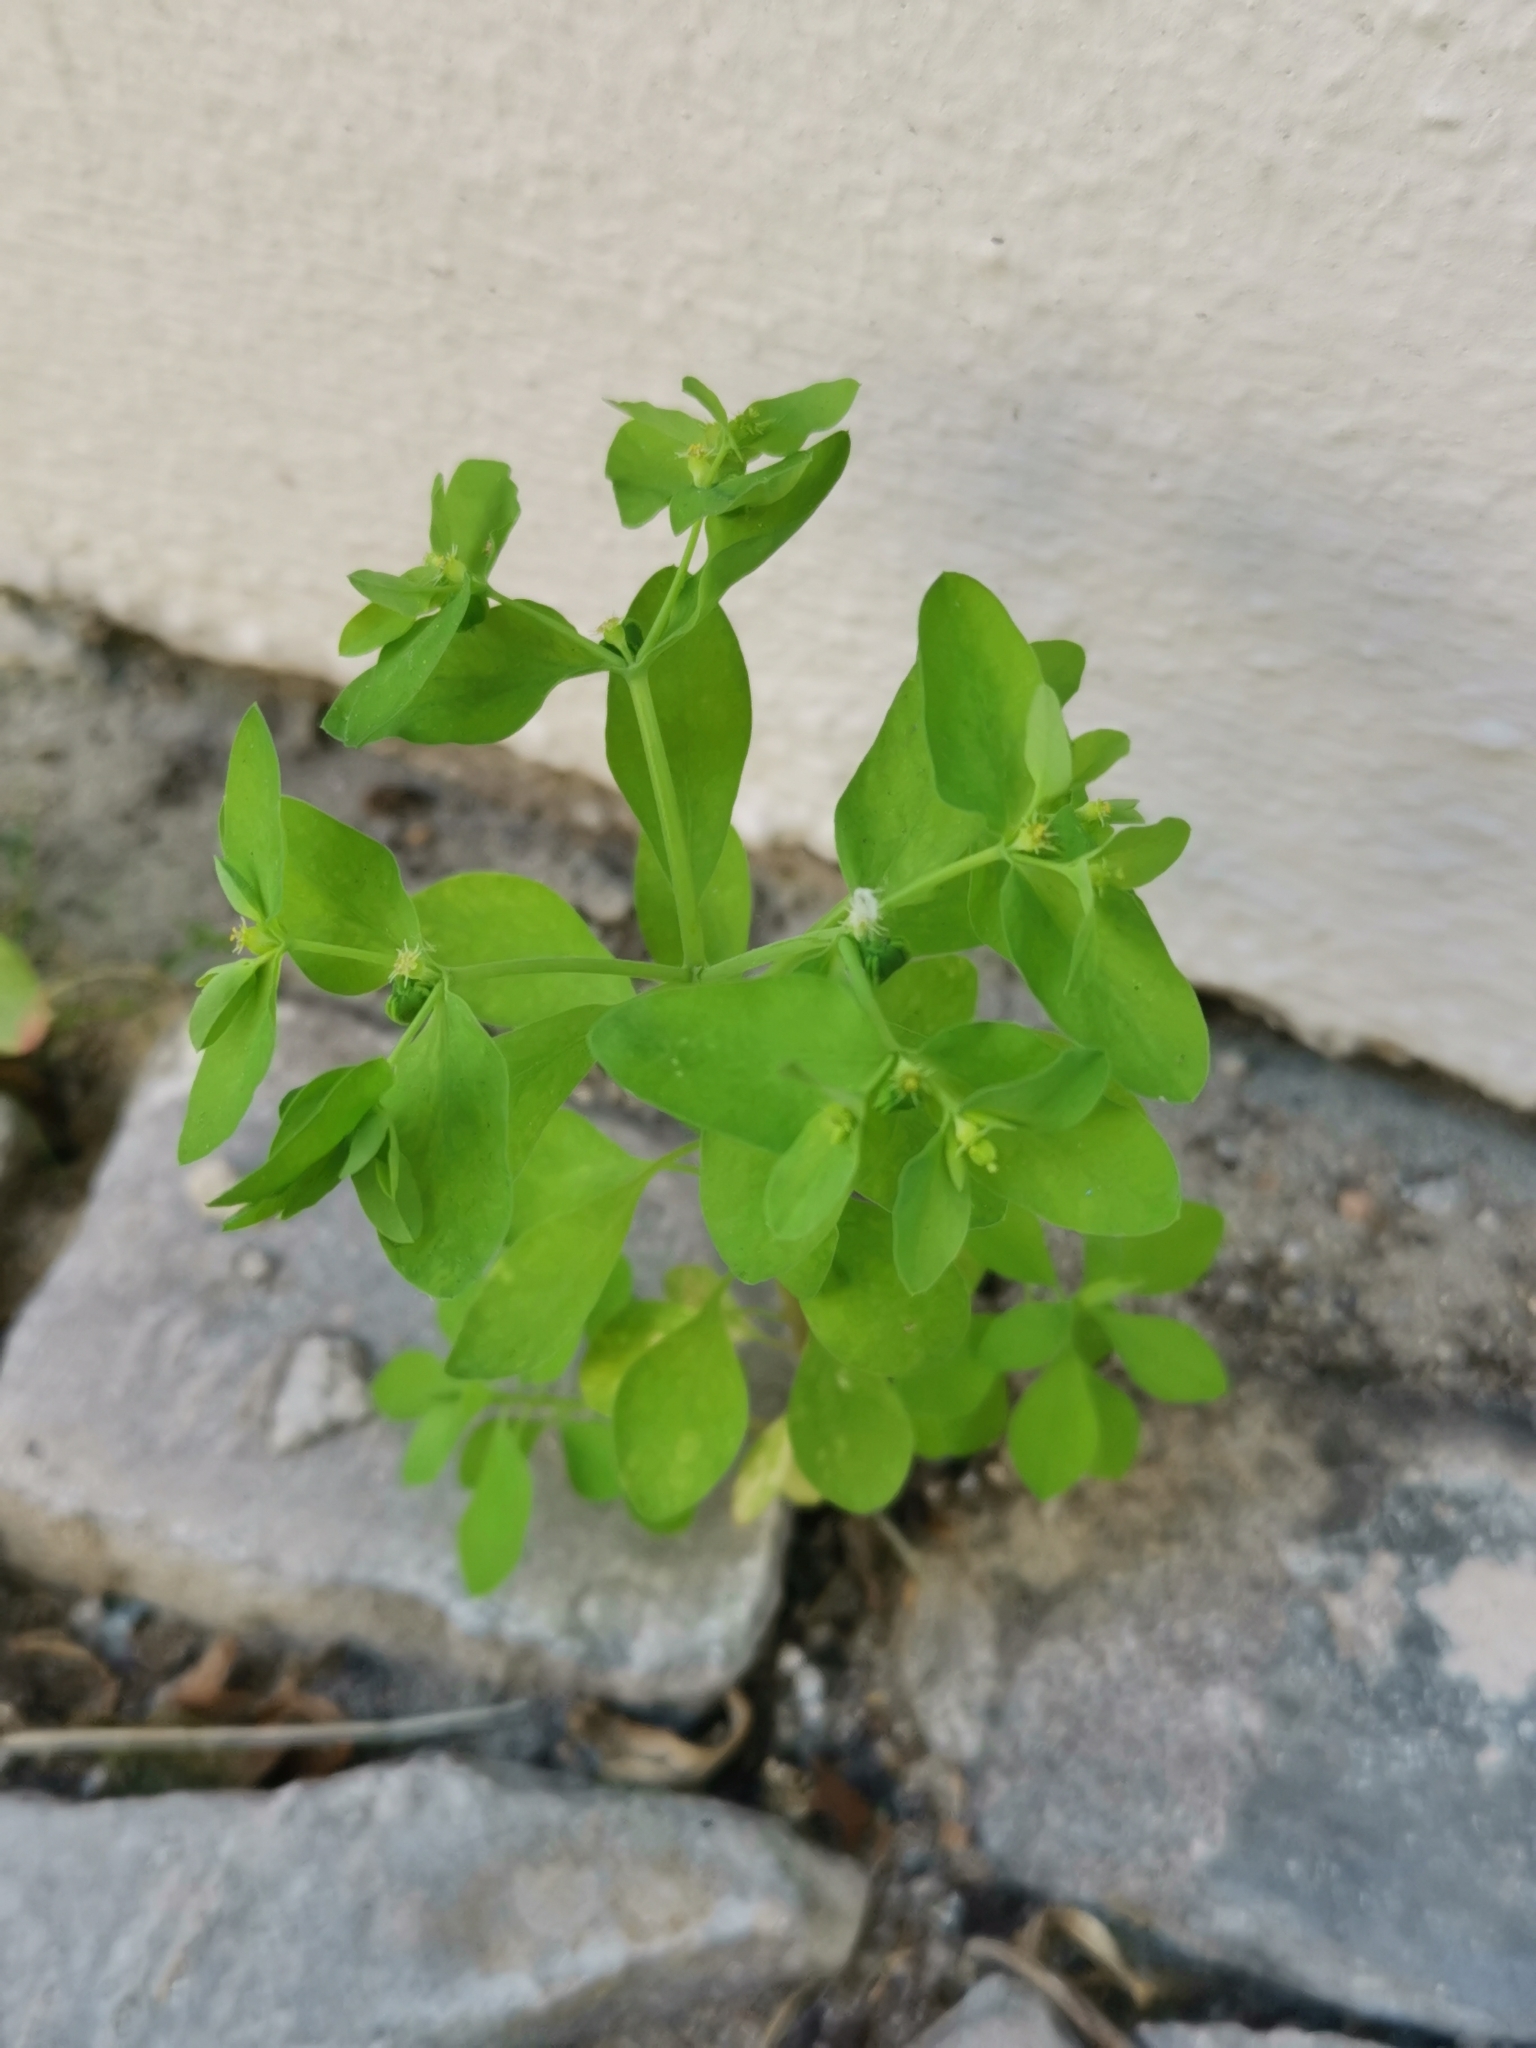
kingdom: Plantae
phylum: Tracheophyta
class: Magnoliopsida
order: Malpighiales
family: Euphorbiaceae
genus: Euphorbia
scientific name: Euphorbia peplus
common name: Petty spurge
